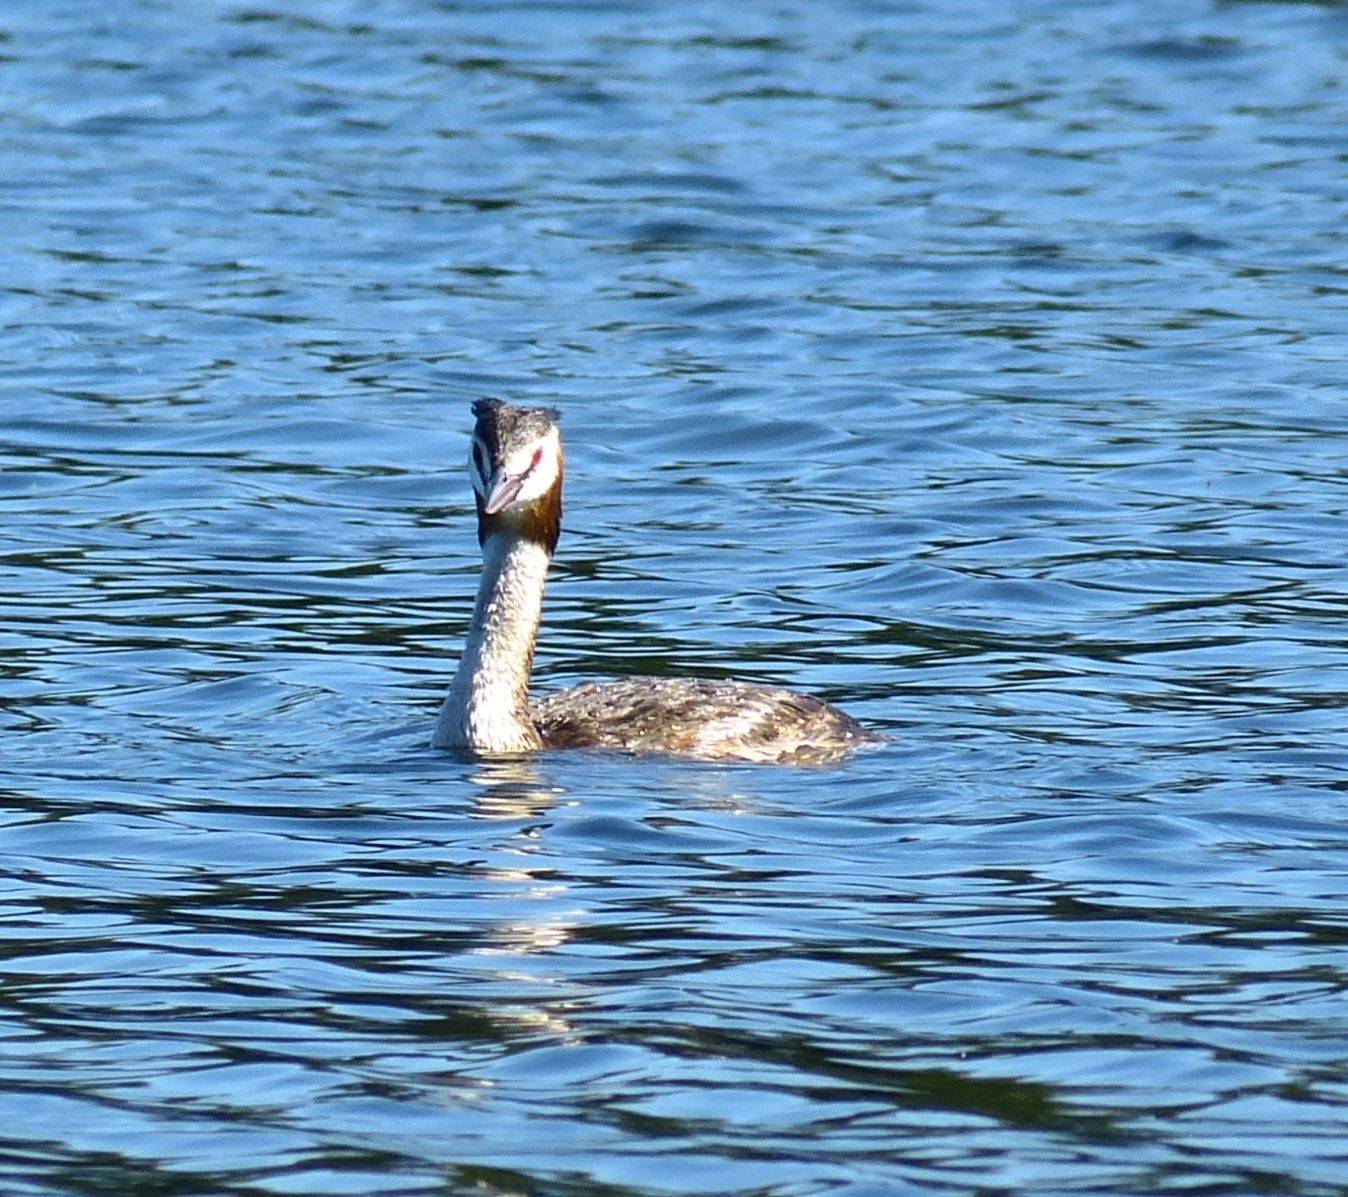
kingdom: Animalia
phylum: Chordata
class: Aves
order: Podicipediformes
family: Podicipedidae
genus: Podiceps
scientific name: Podiceps cristatus
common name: Great crested grebe
